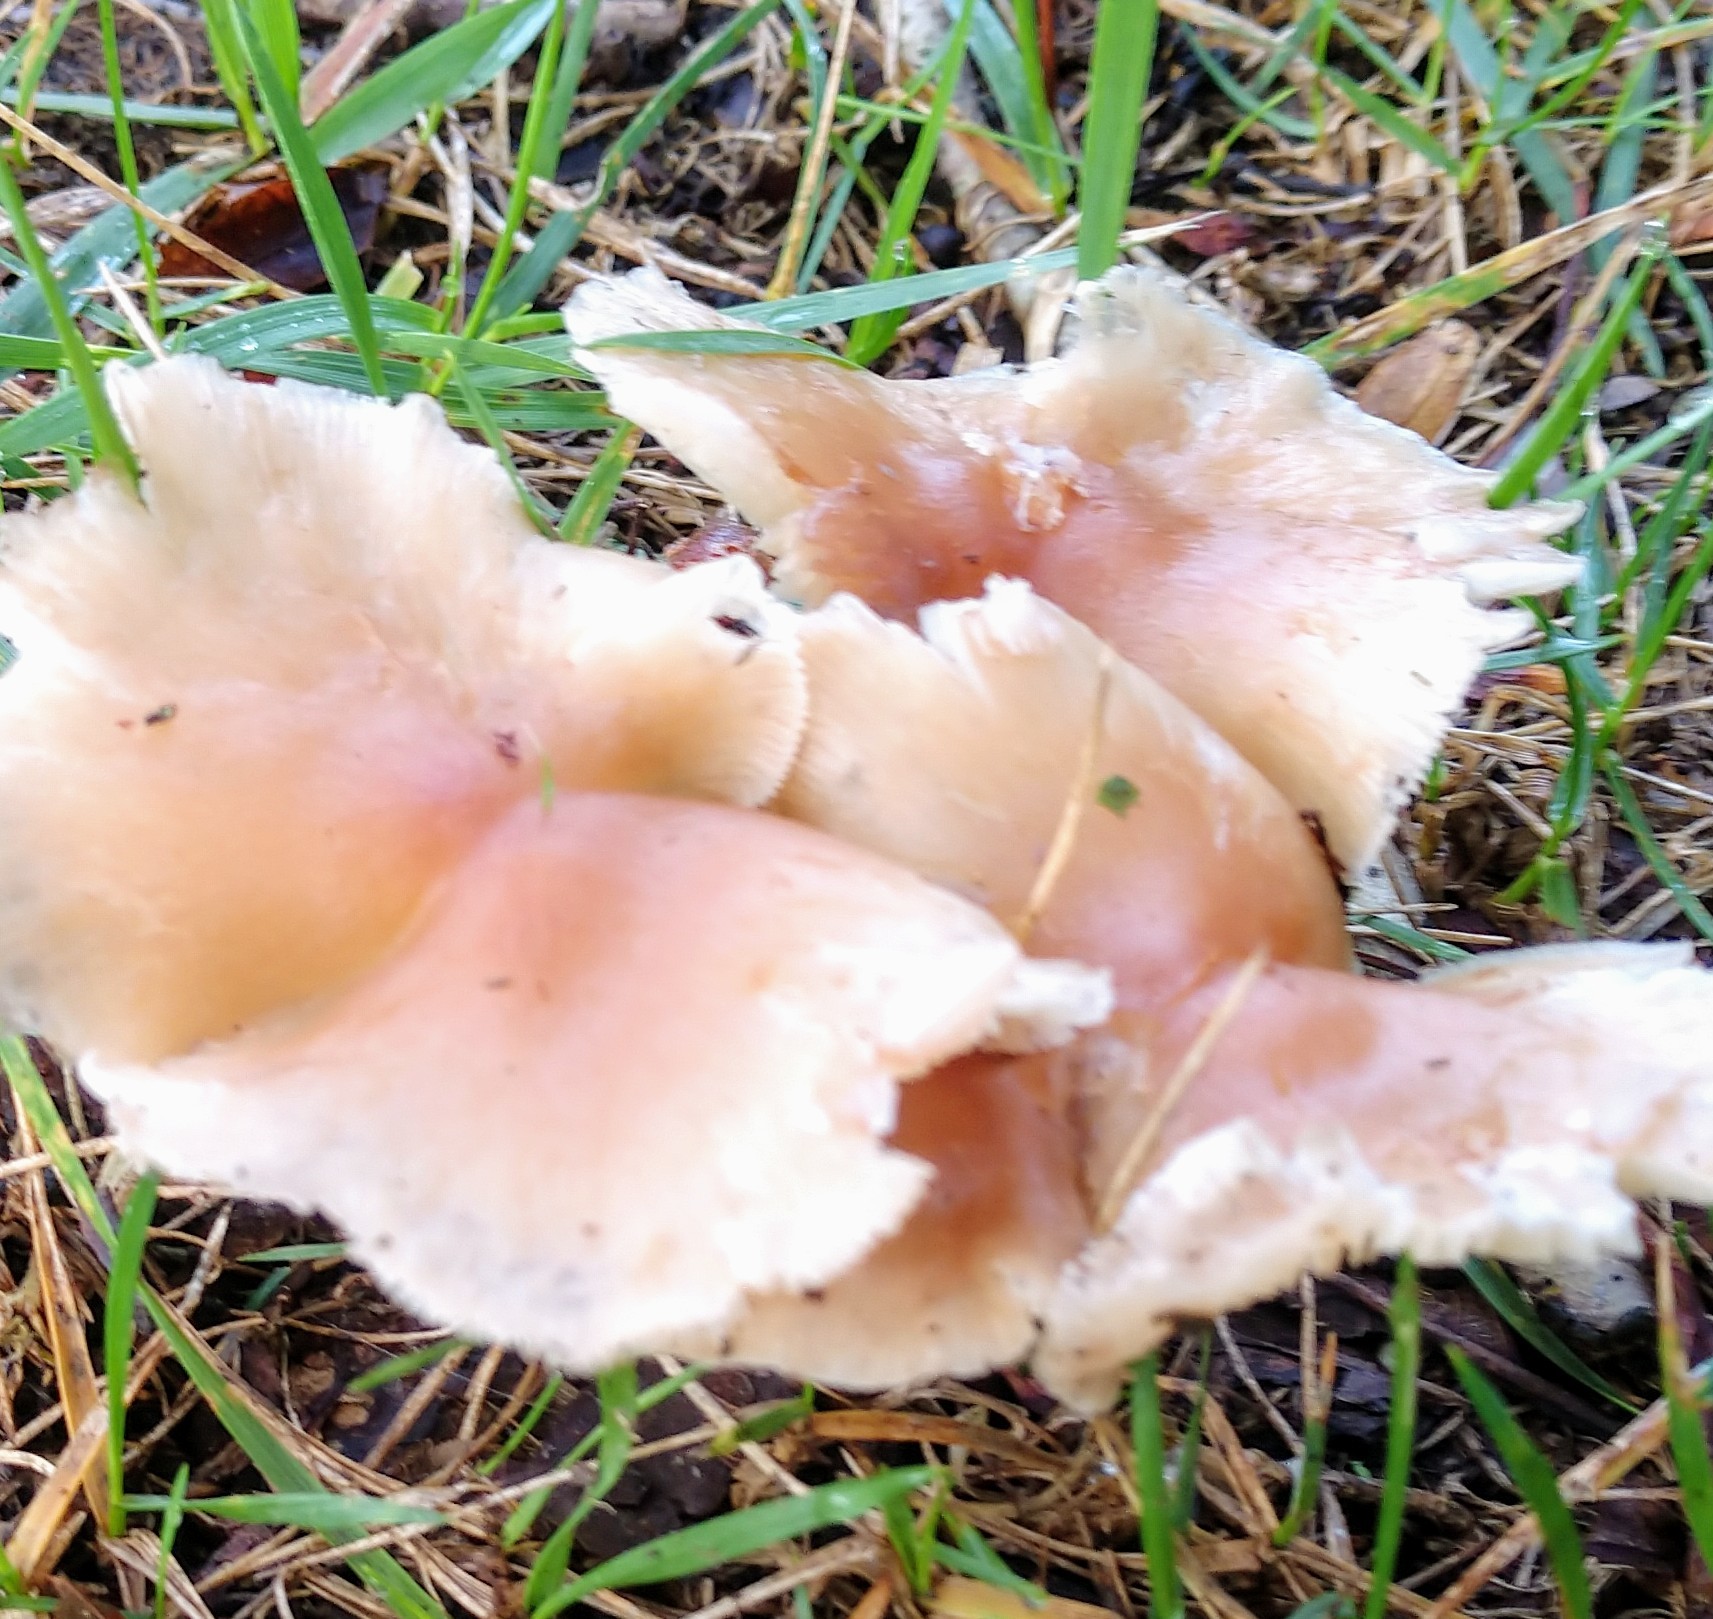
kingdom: Fungi
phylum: Basidiomycota
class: Agaricomycetes
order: Agaricales
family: Omphalotaceae
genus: Rhodocollybia
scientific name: Rhodocollybia butyracea
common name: Butter cap
